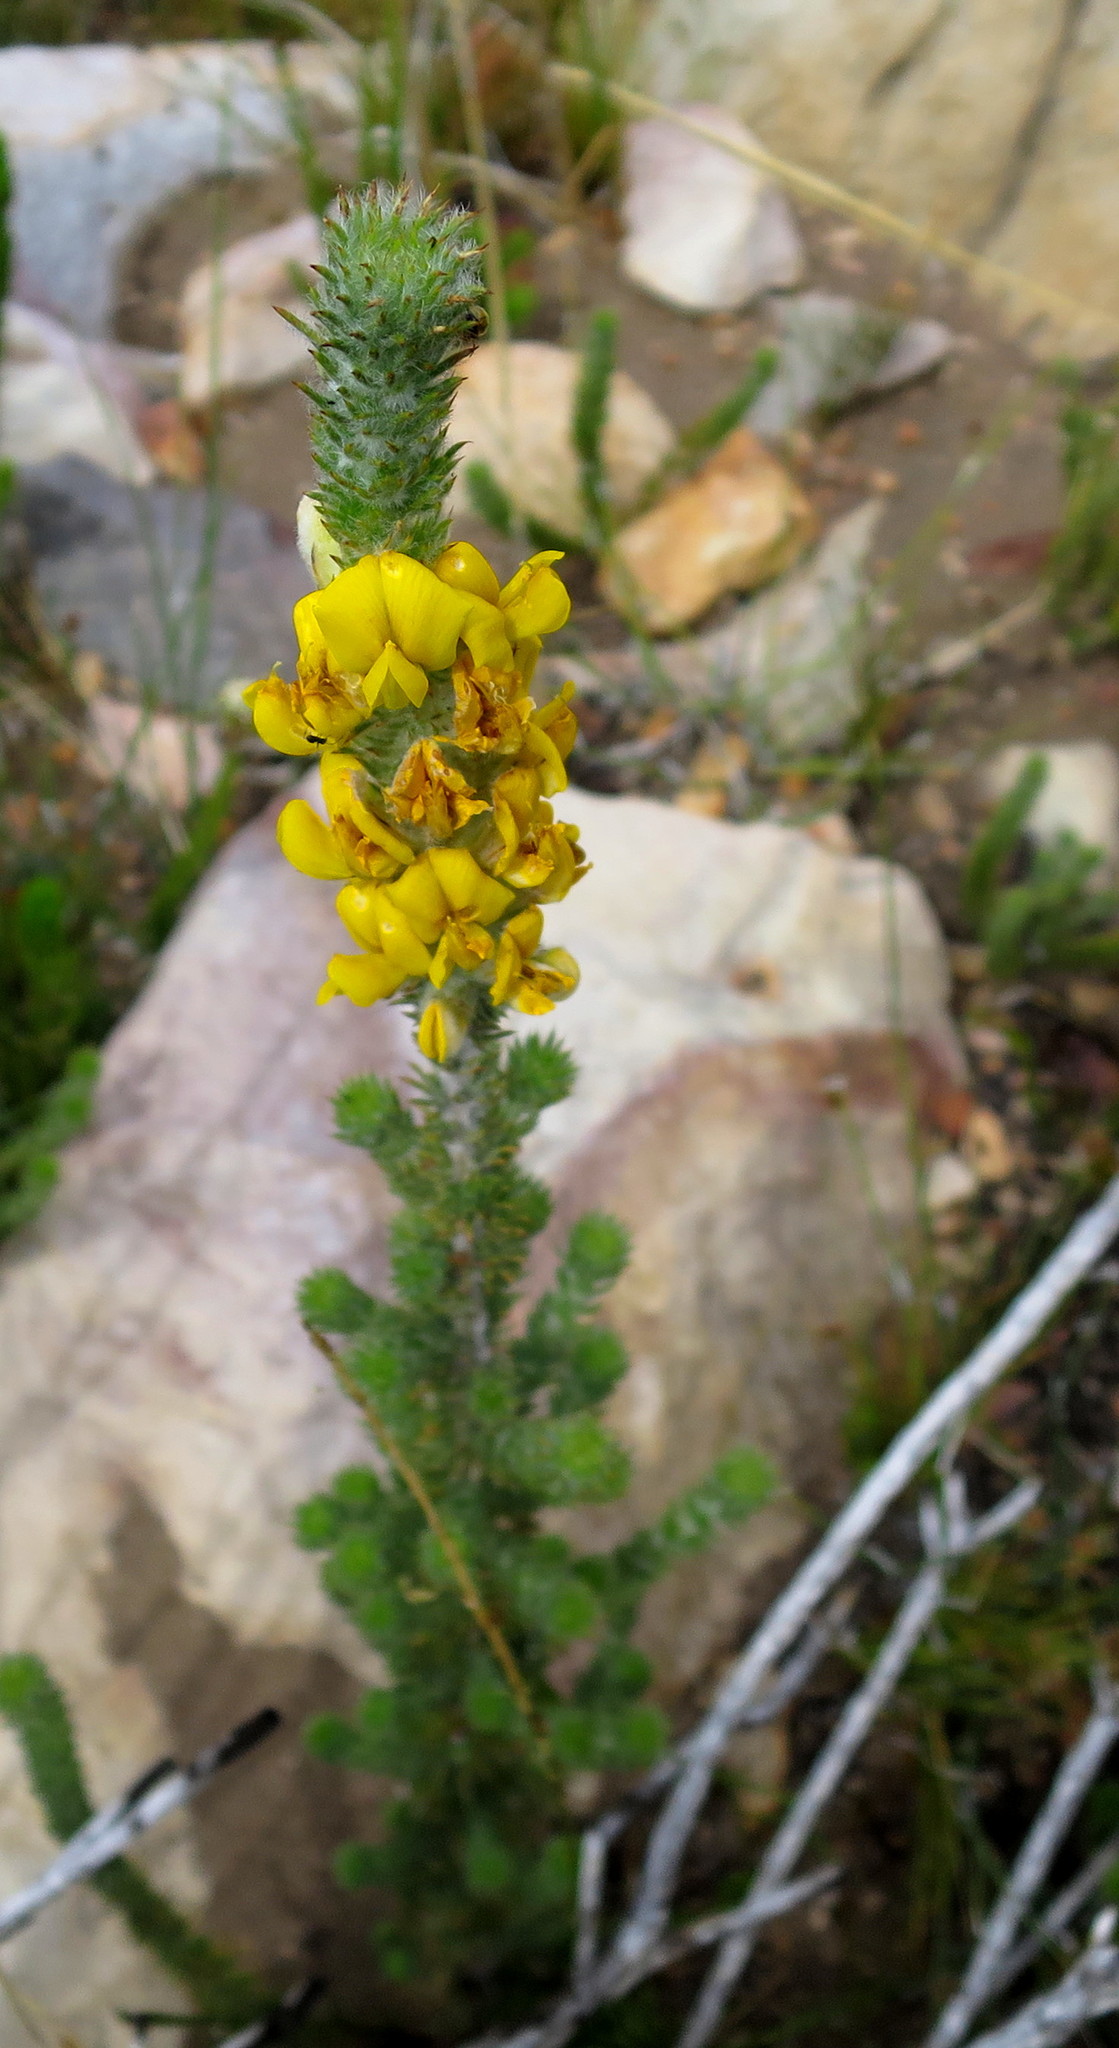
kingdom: Plantae
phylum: Tracheophyta
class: Magnoliopsida
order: Fabales
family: Fabaceae
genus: Aspalathus
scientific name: Aspalathus shawii
